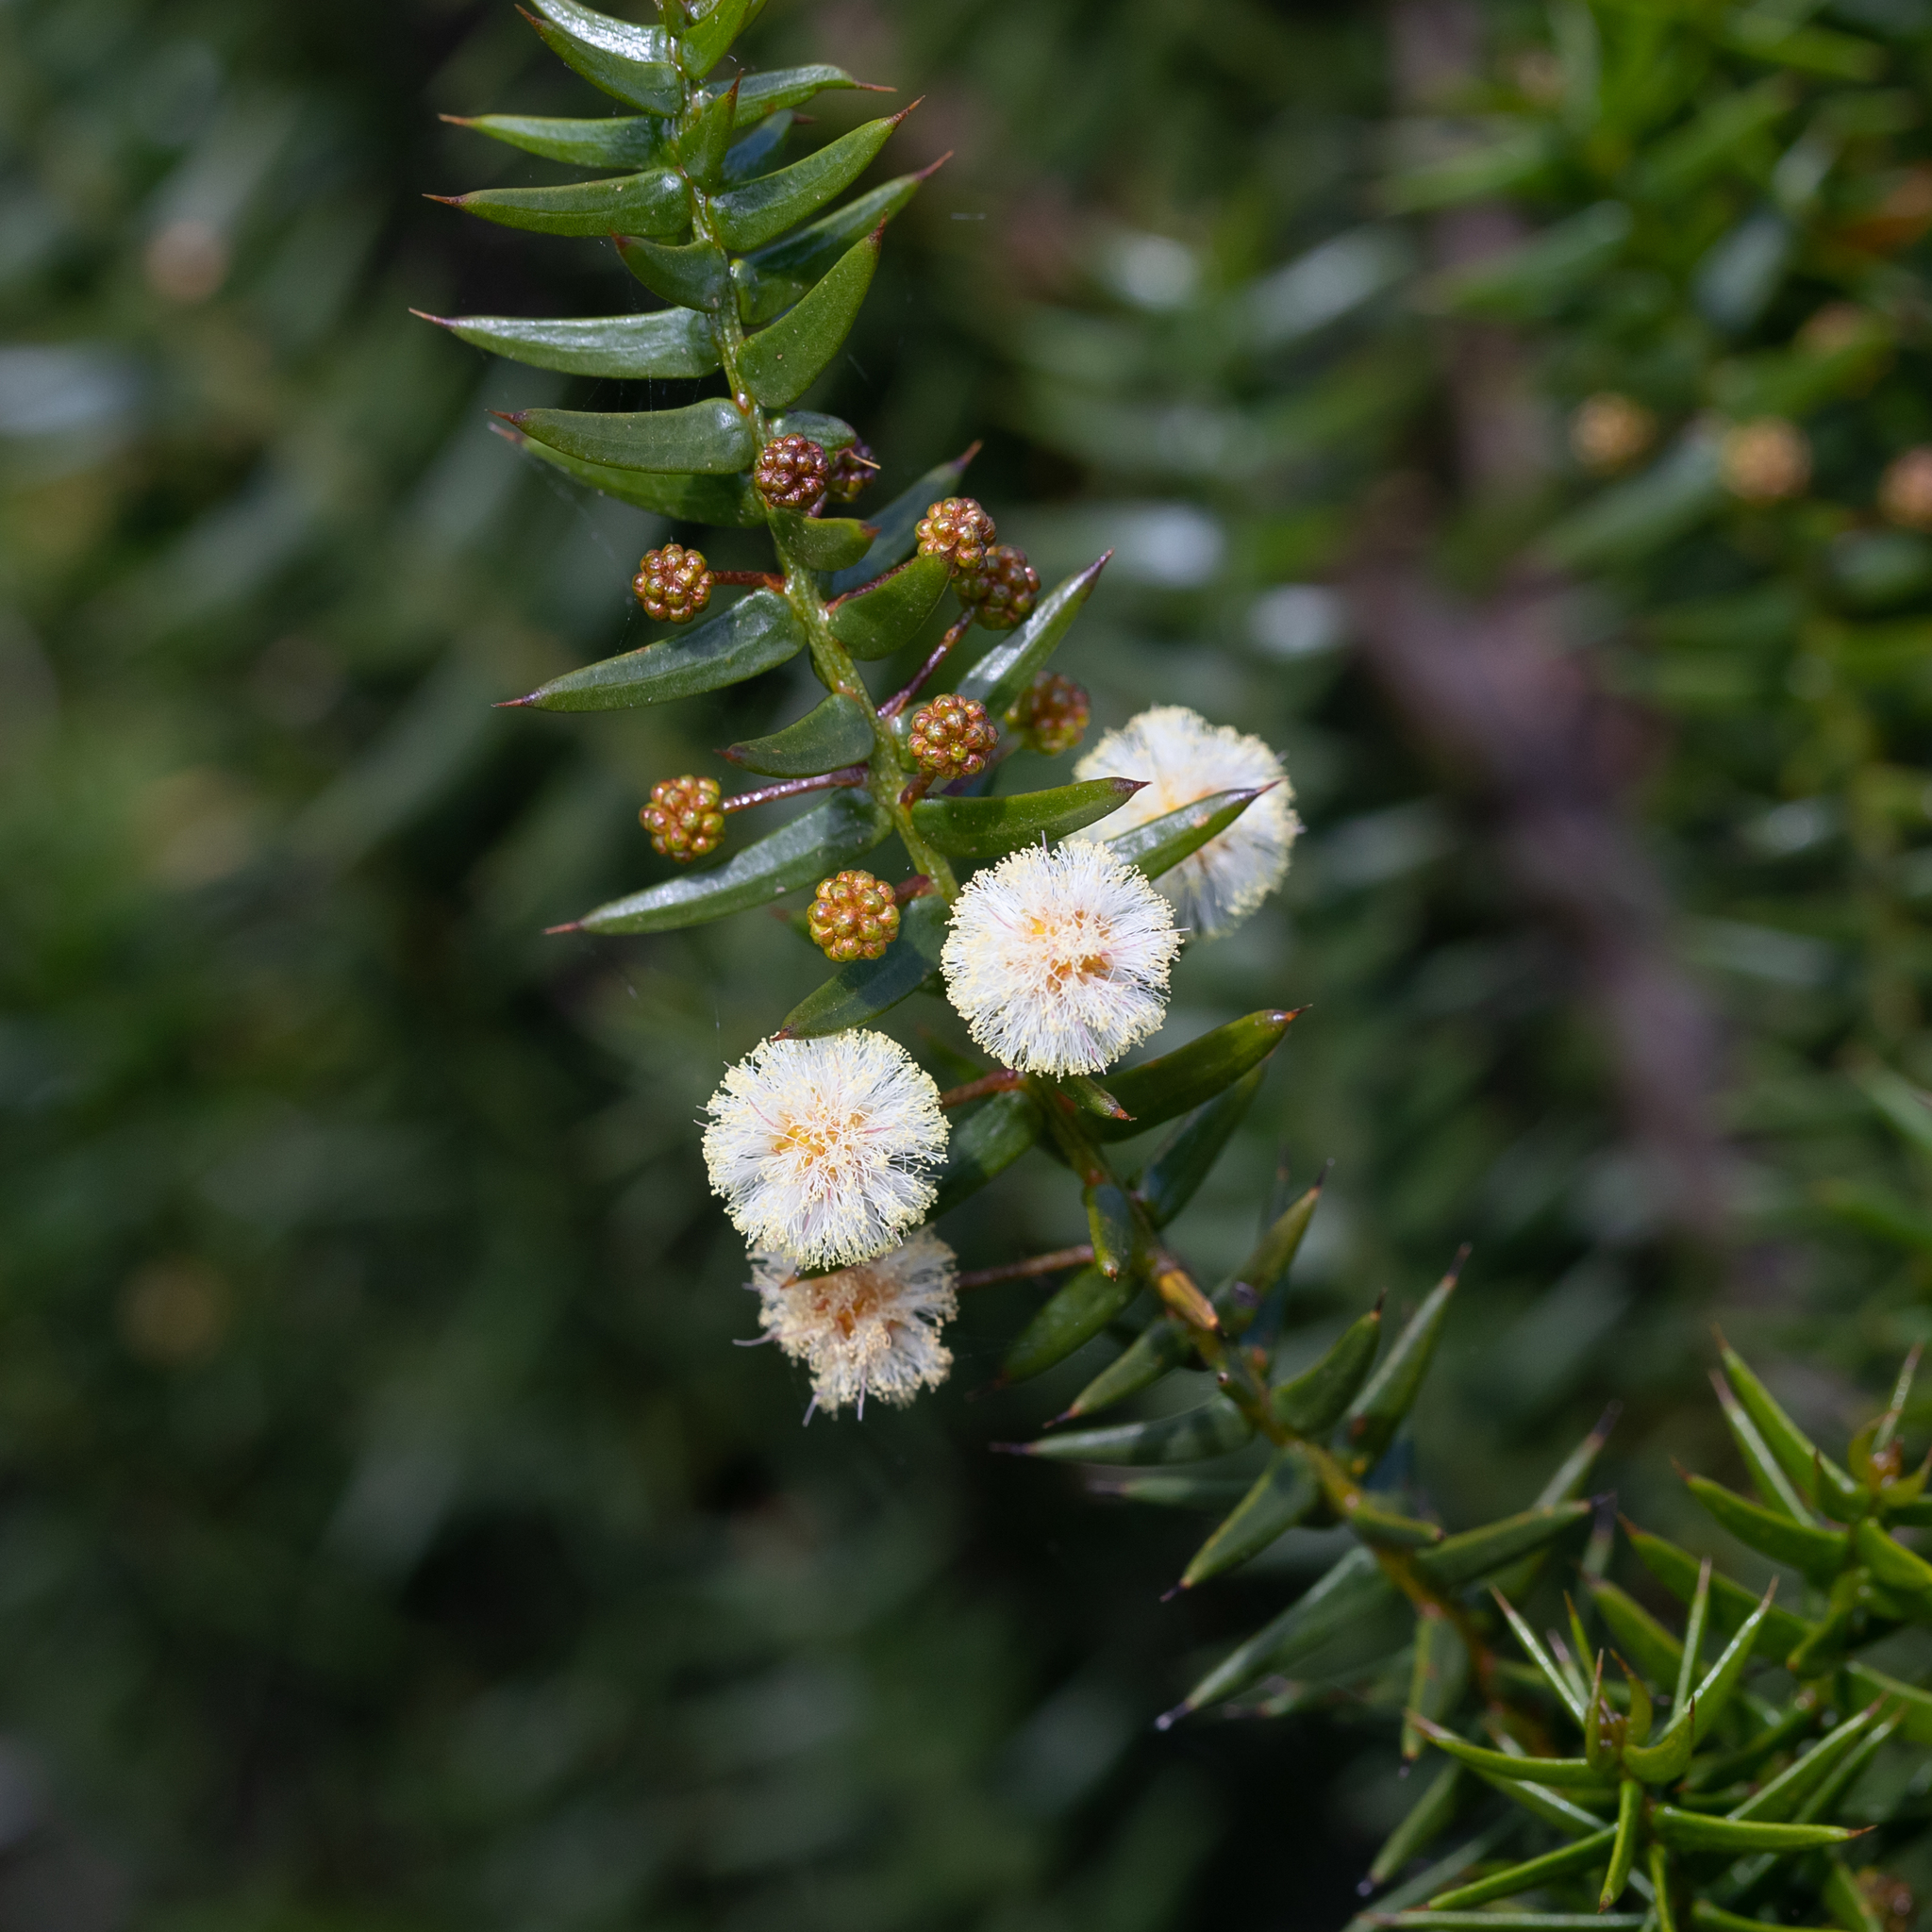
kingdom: Plantae
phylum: Tracheophyta
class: Magnoliopsida
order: Fabales
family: Fabaceae
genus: Acacia
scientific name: Acacia rupicola
